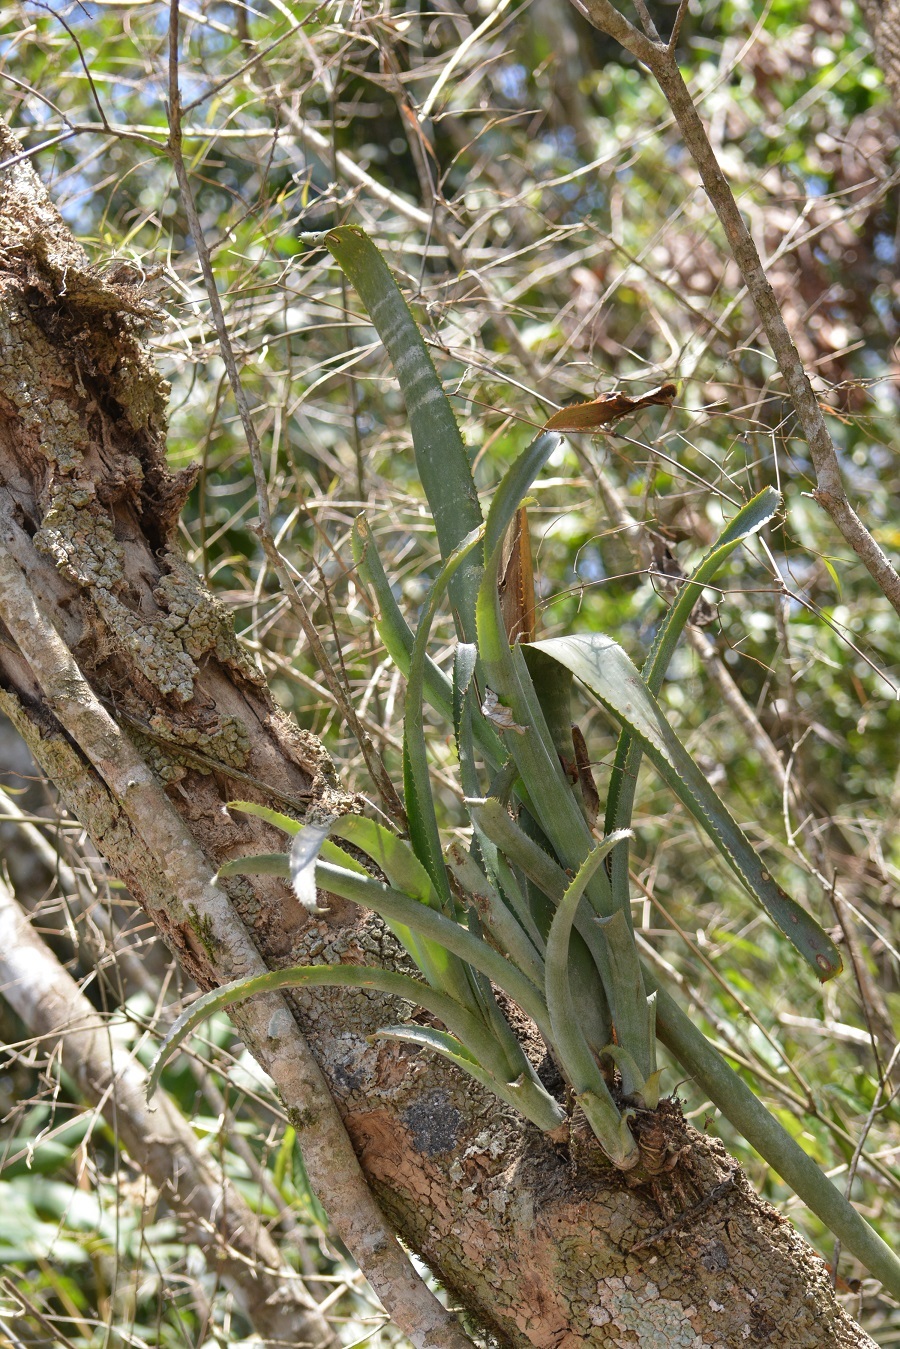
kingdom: Plantae
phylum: Tracheophyta
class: Liliopsida
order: Poales
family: Bromeliaceae
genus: Billbergia
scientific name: Billbergia pallidiflora
